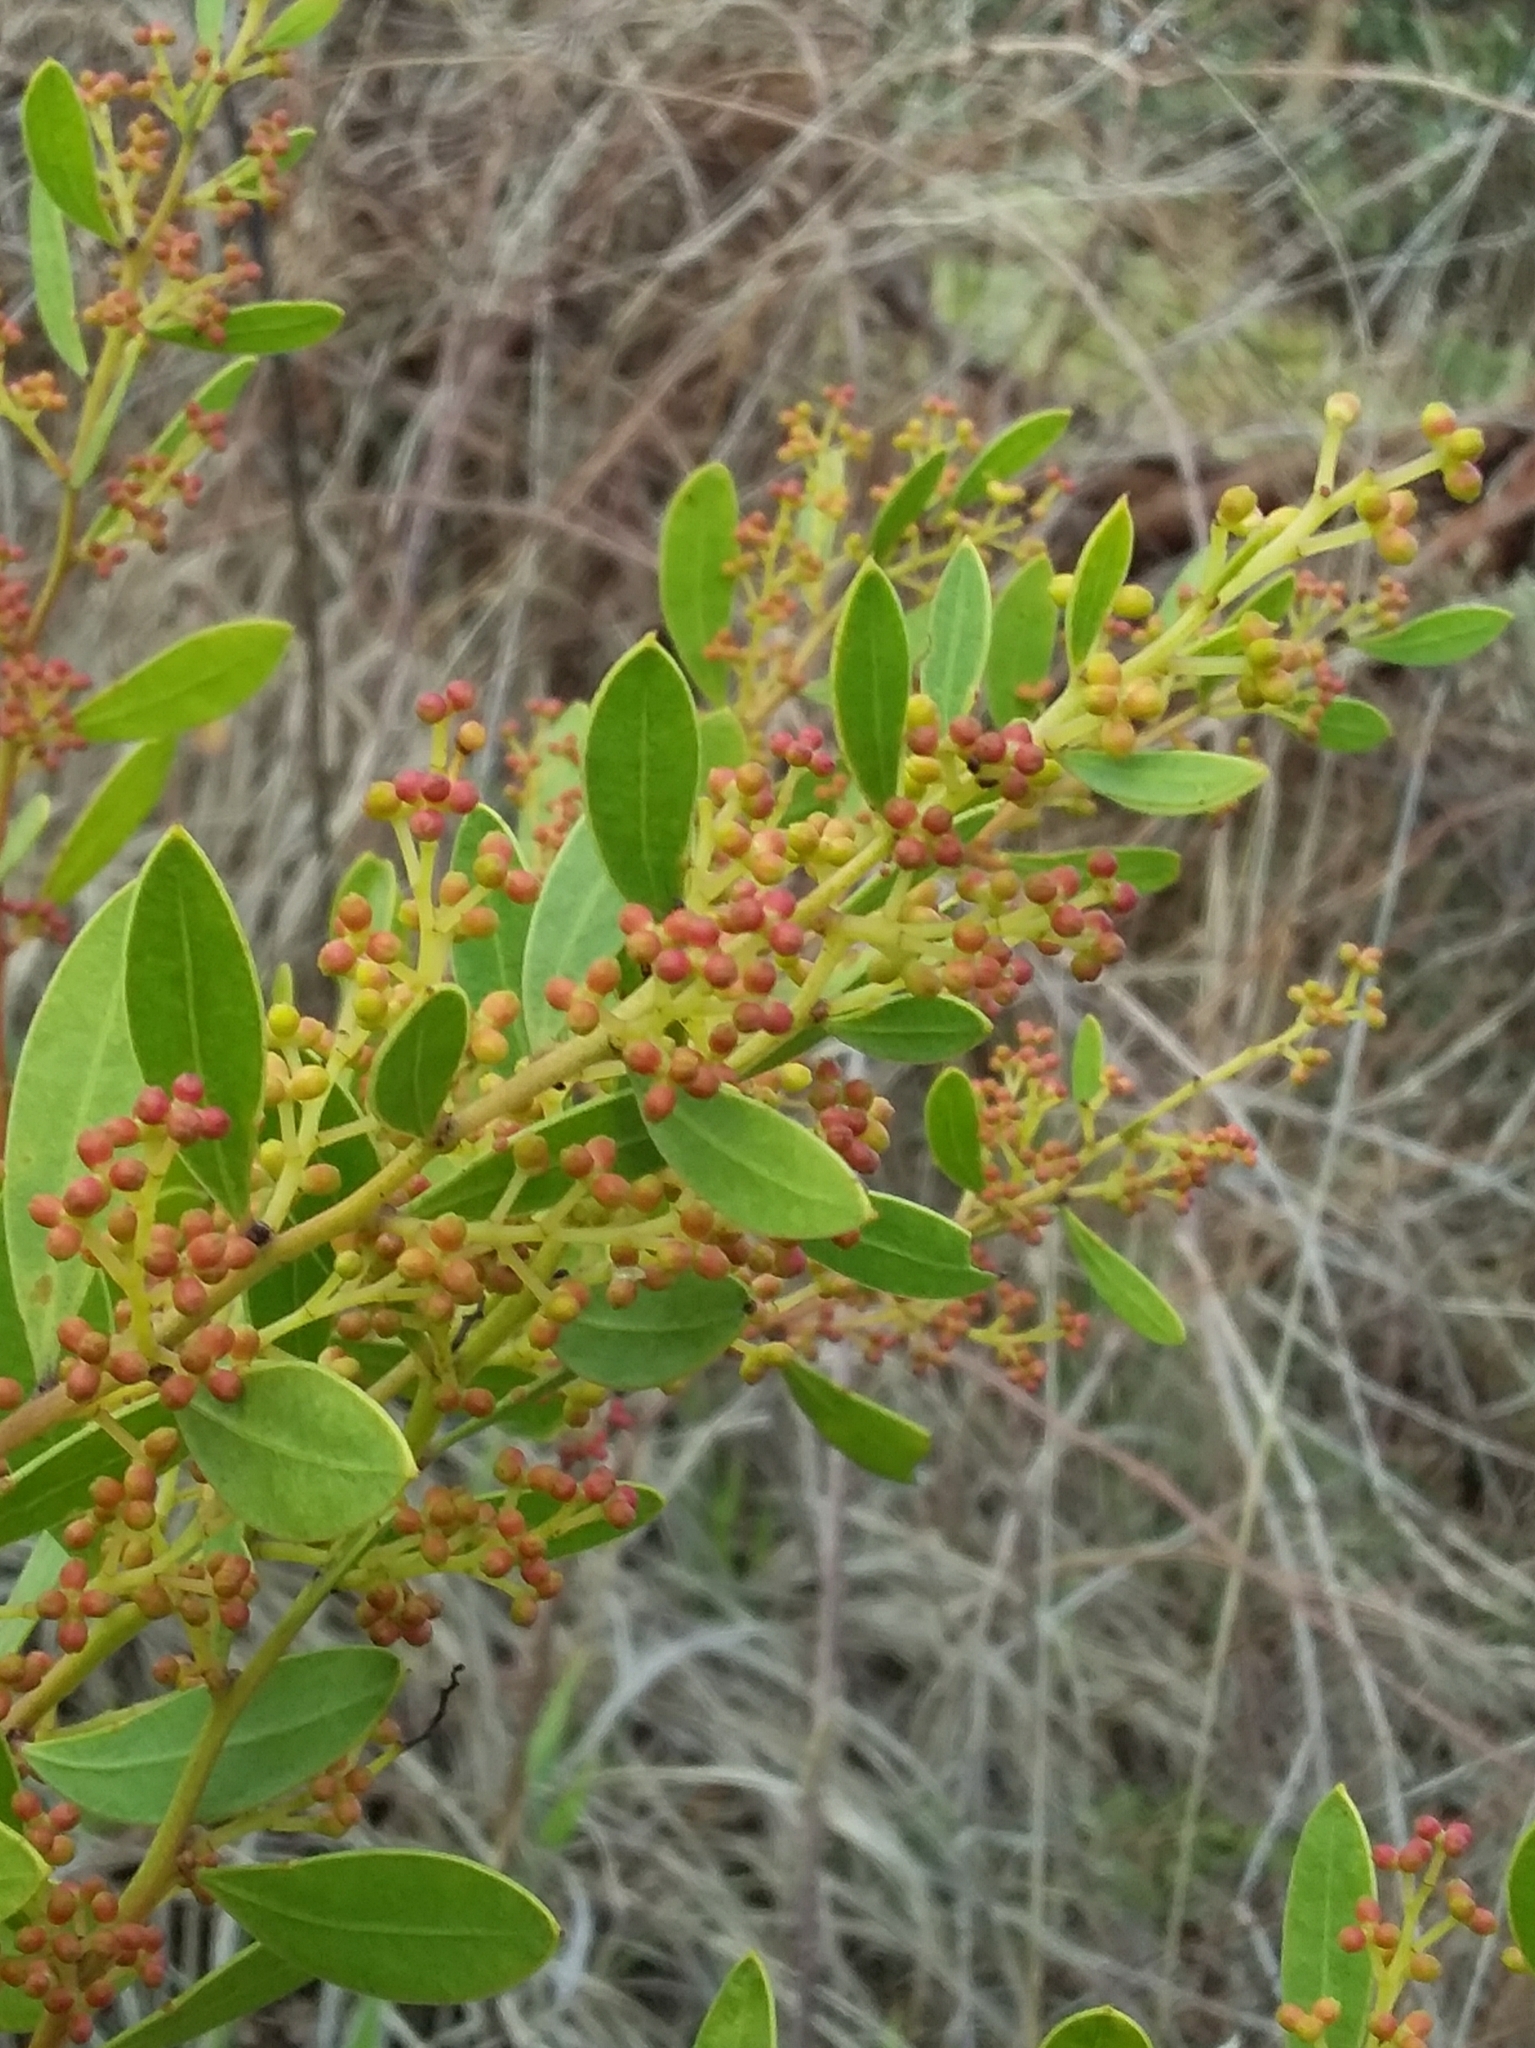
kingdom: Plantae
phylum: Tracheophyta
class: Magnoliopsida
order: Fabales
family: Fabaceae
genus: Acacia
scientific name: Acacia myrtifolia
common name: Myrtle wattle
